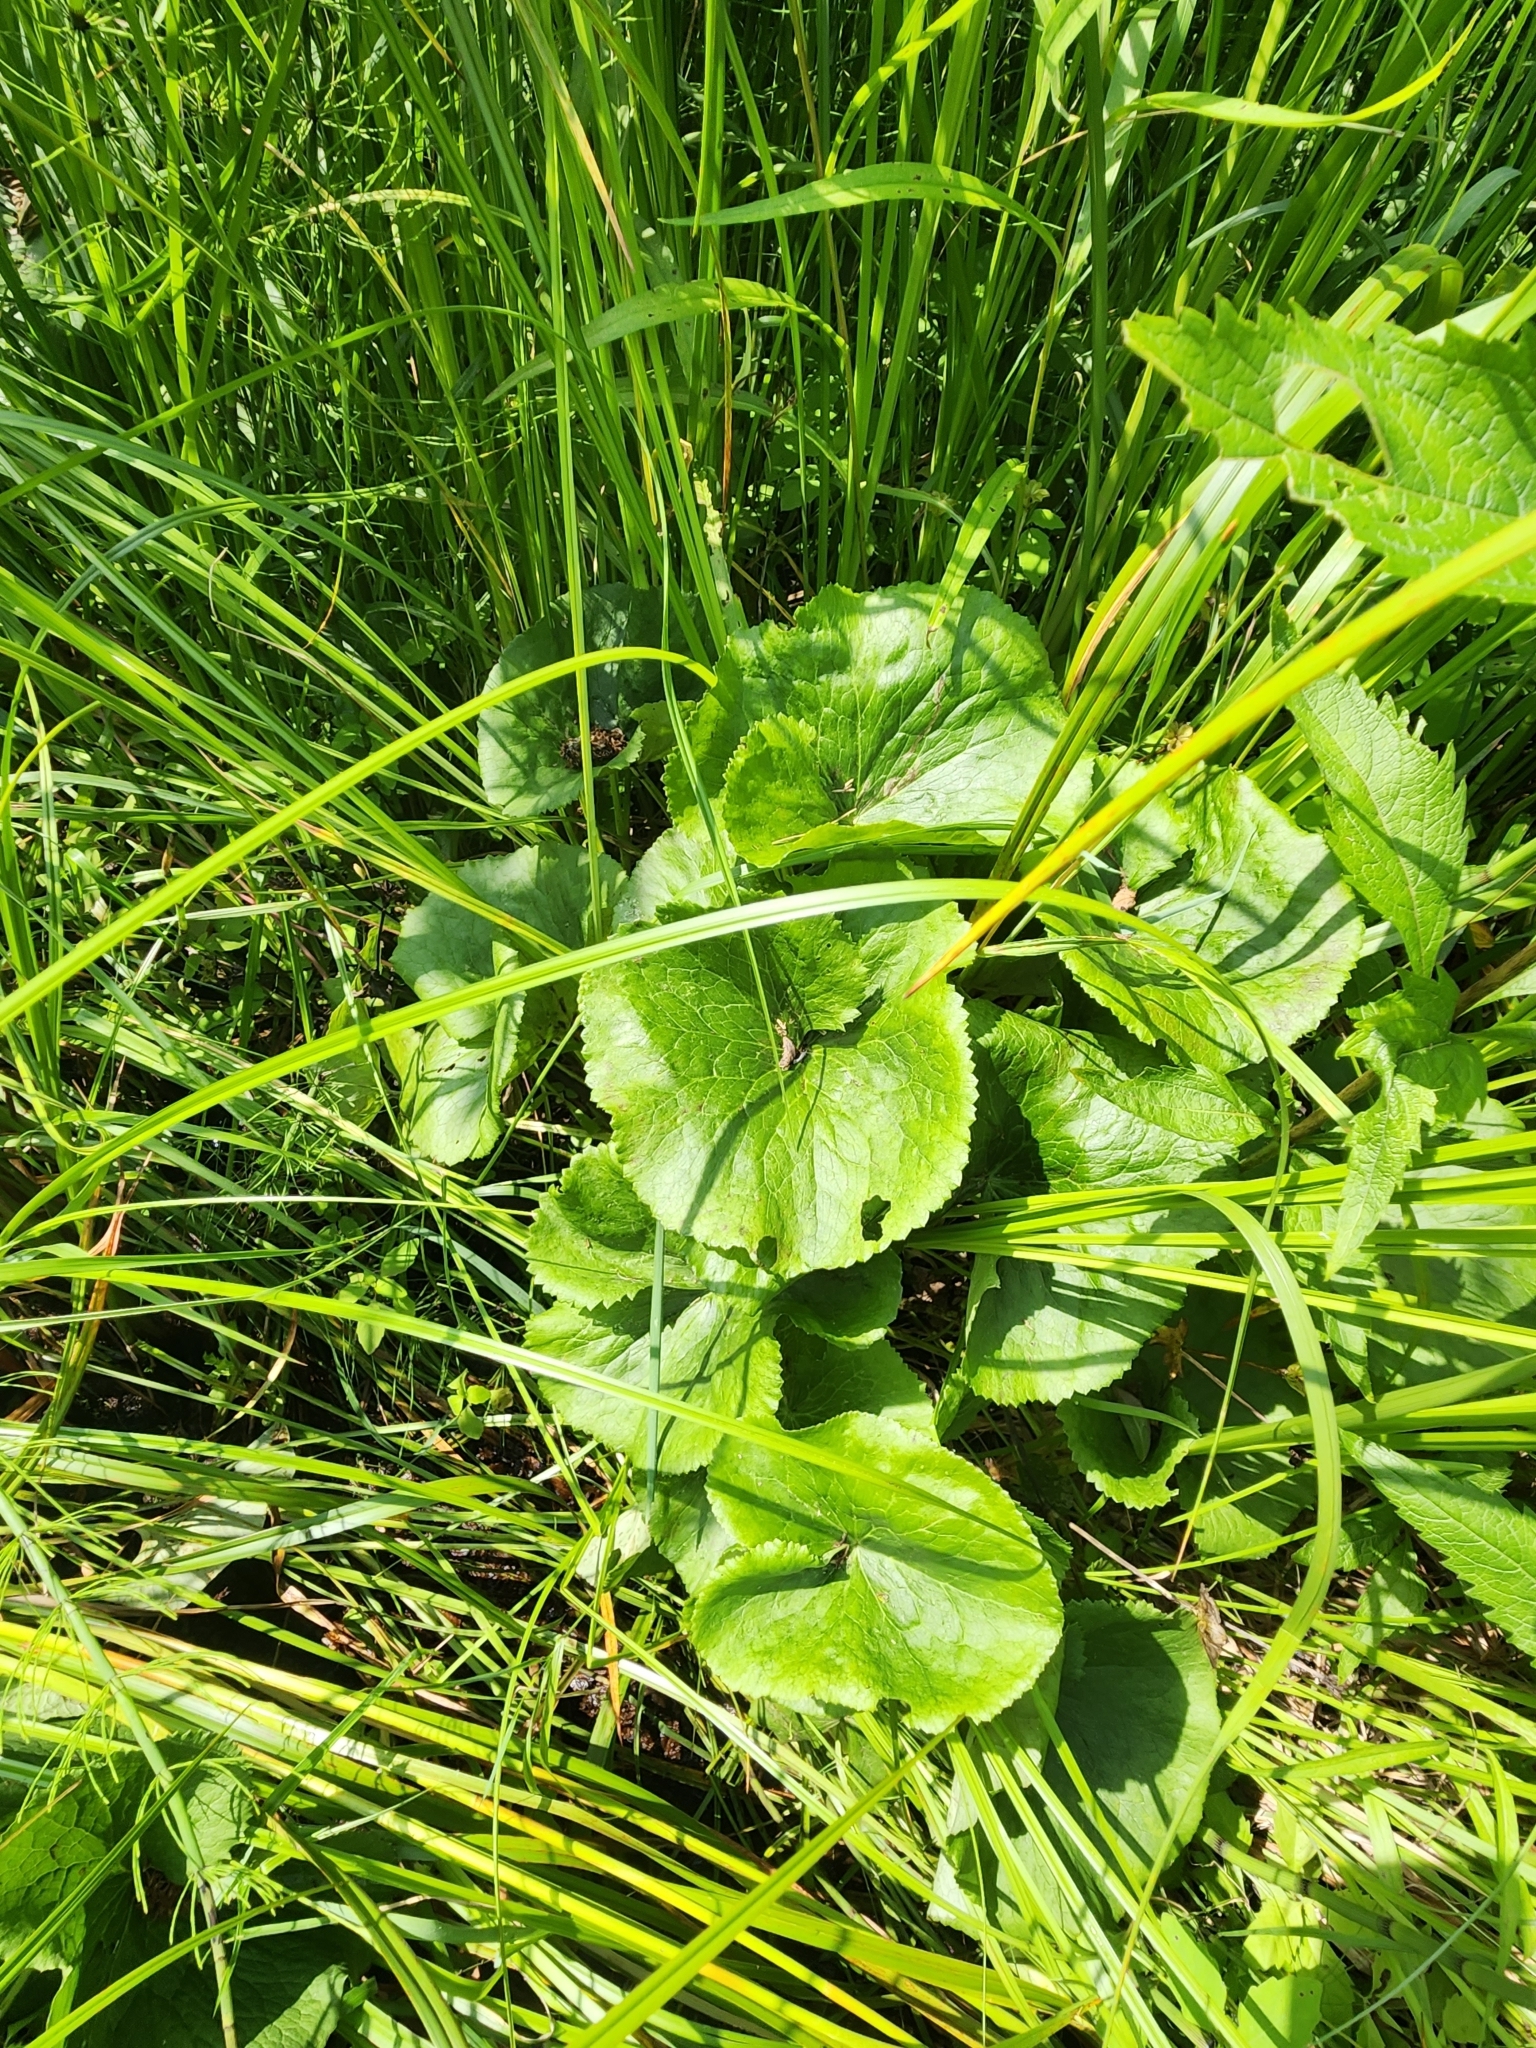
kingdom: Plantae
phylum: Tracheophyta
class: Magnoliopsida
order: Ranunculales
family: Ranunculaceae
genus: Caltha
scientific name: Caltha palustris
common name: Marsh marigold
